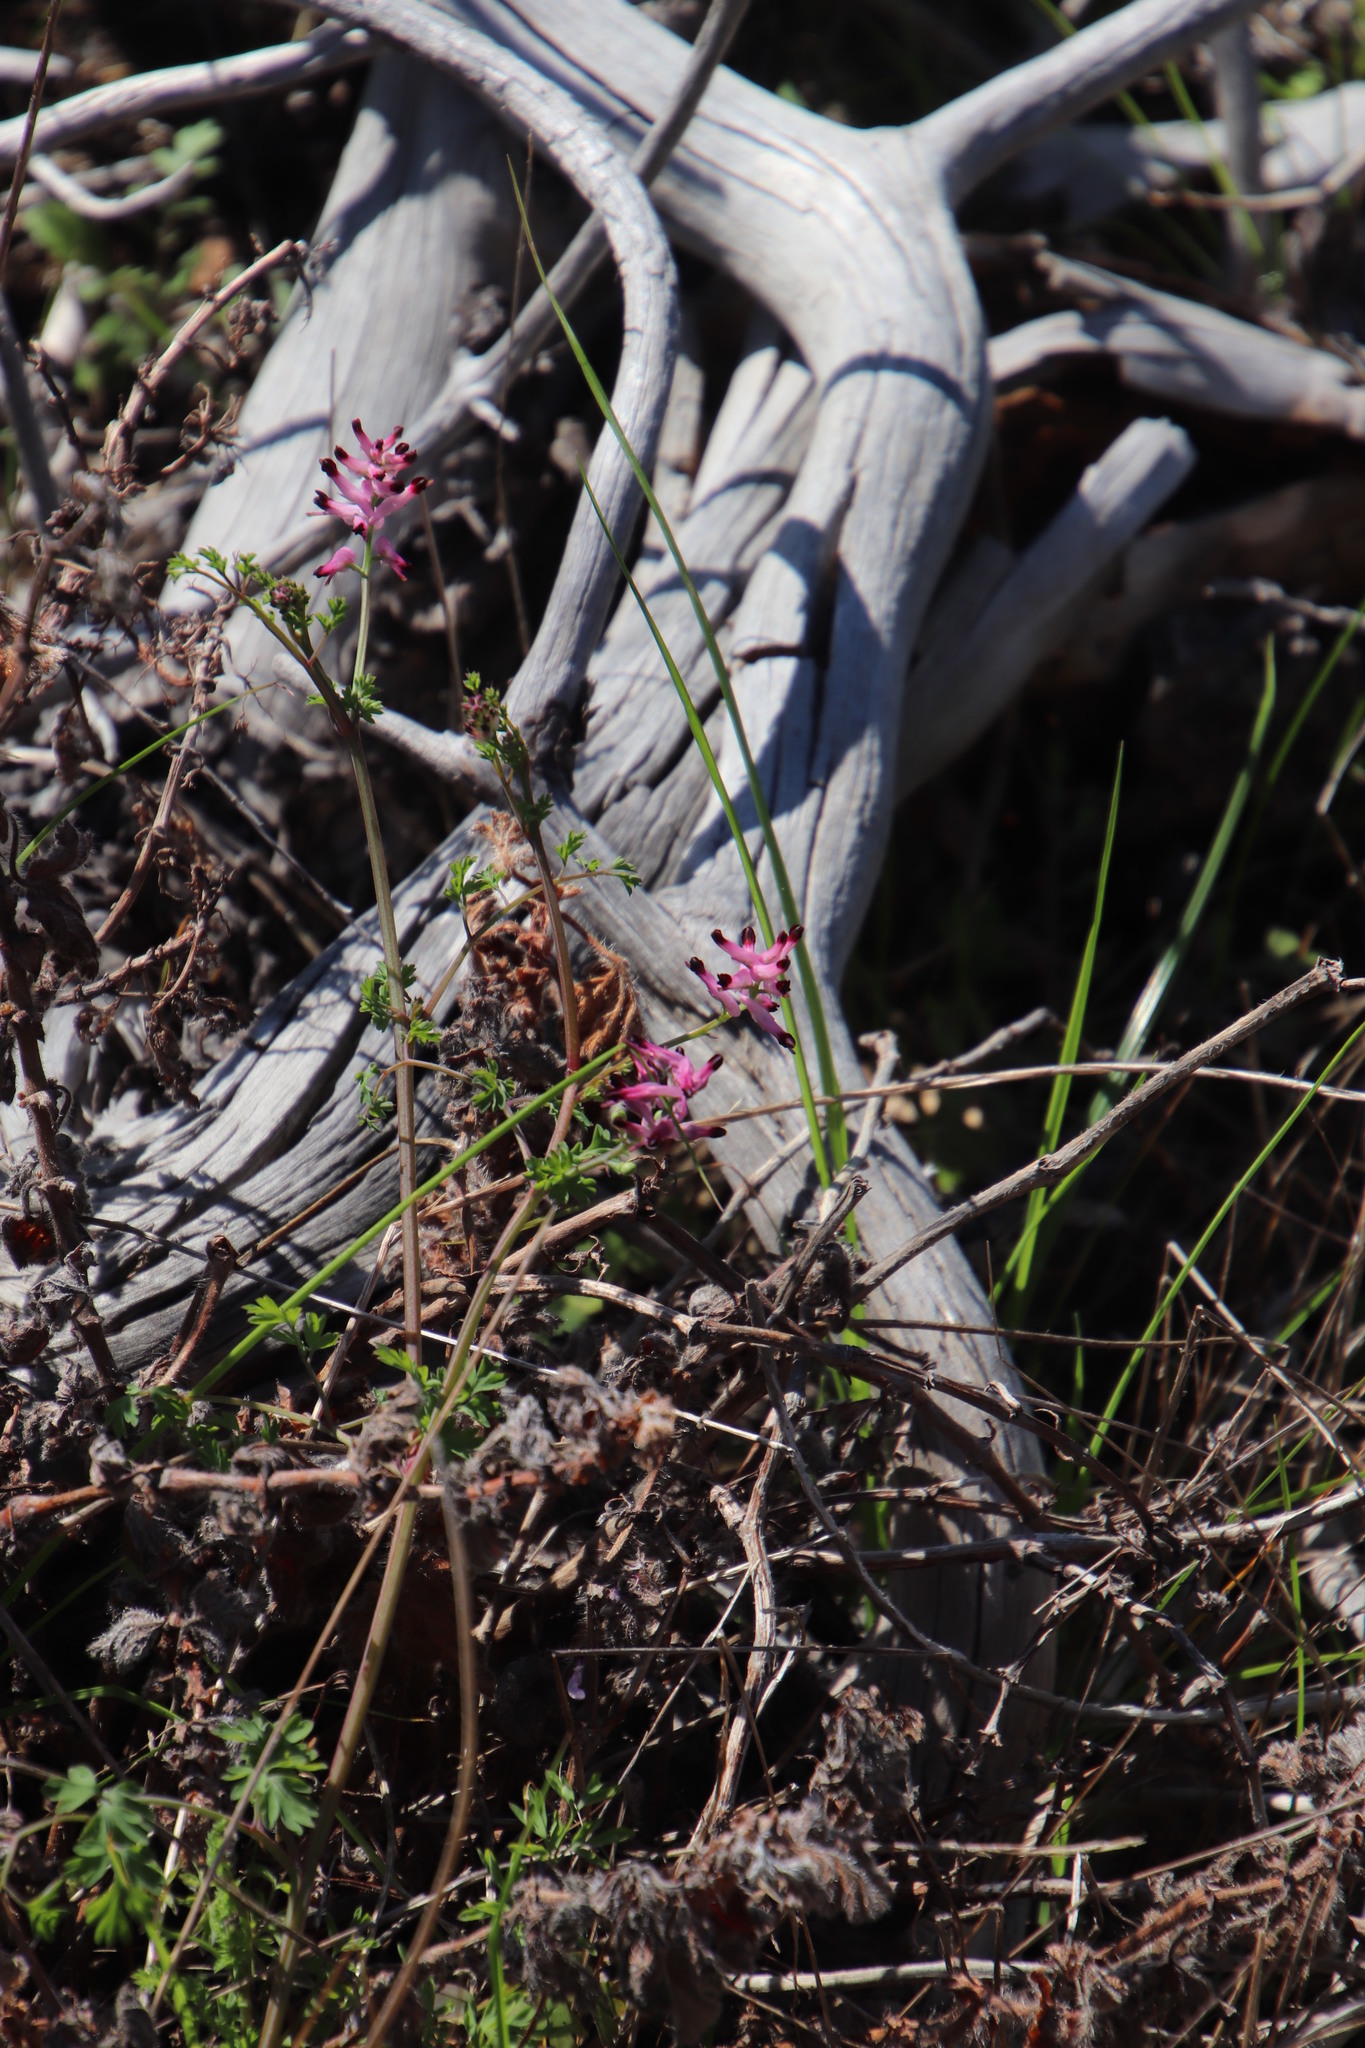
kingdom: Plantae
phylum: Tracheophyta
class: Magnoliopsida
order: Ranunculales
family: Papaveraceae
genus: Fumaria
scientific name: Fumaria muralis
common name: Common ramping-fumitory
